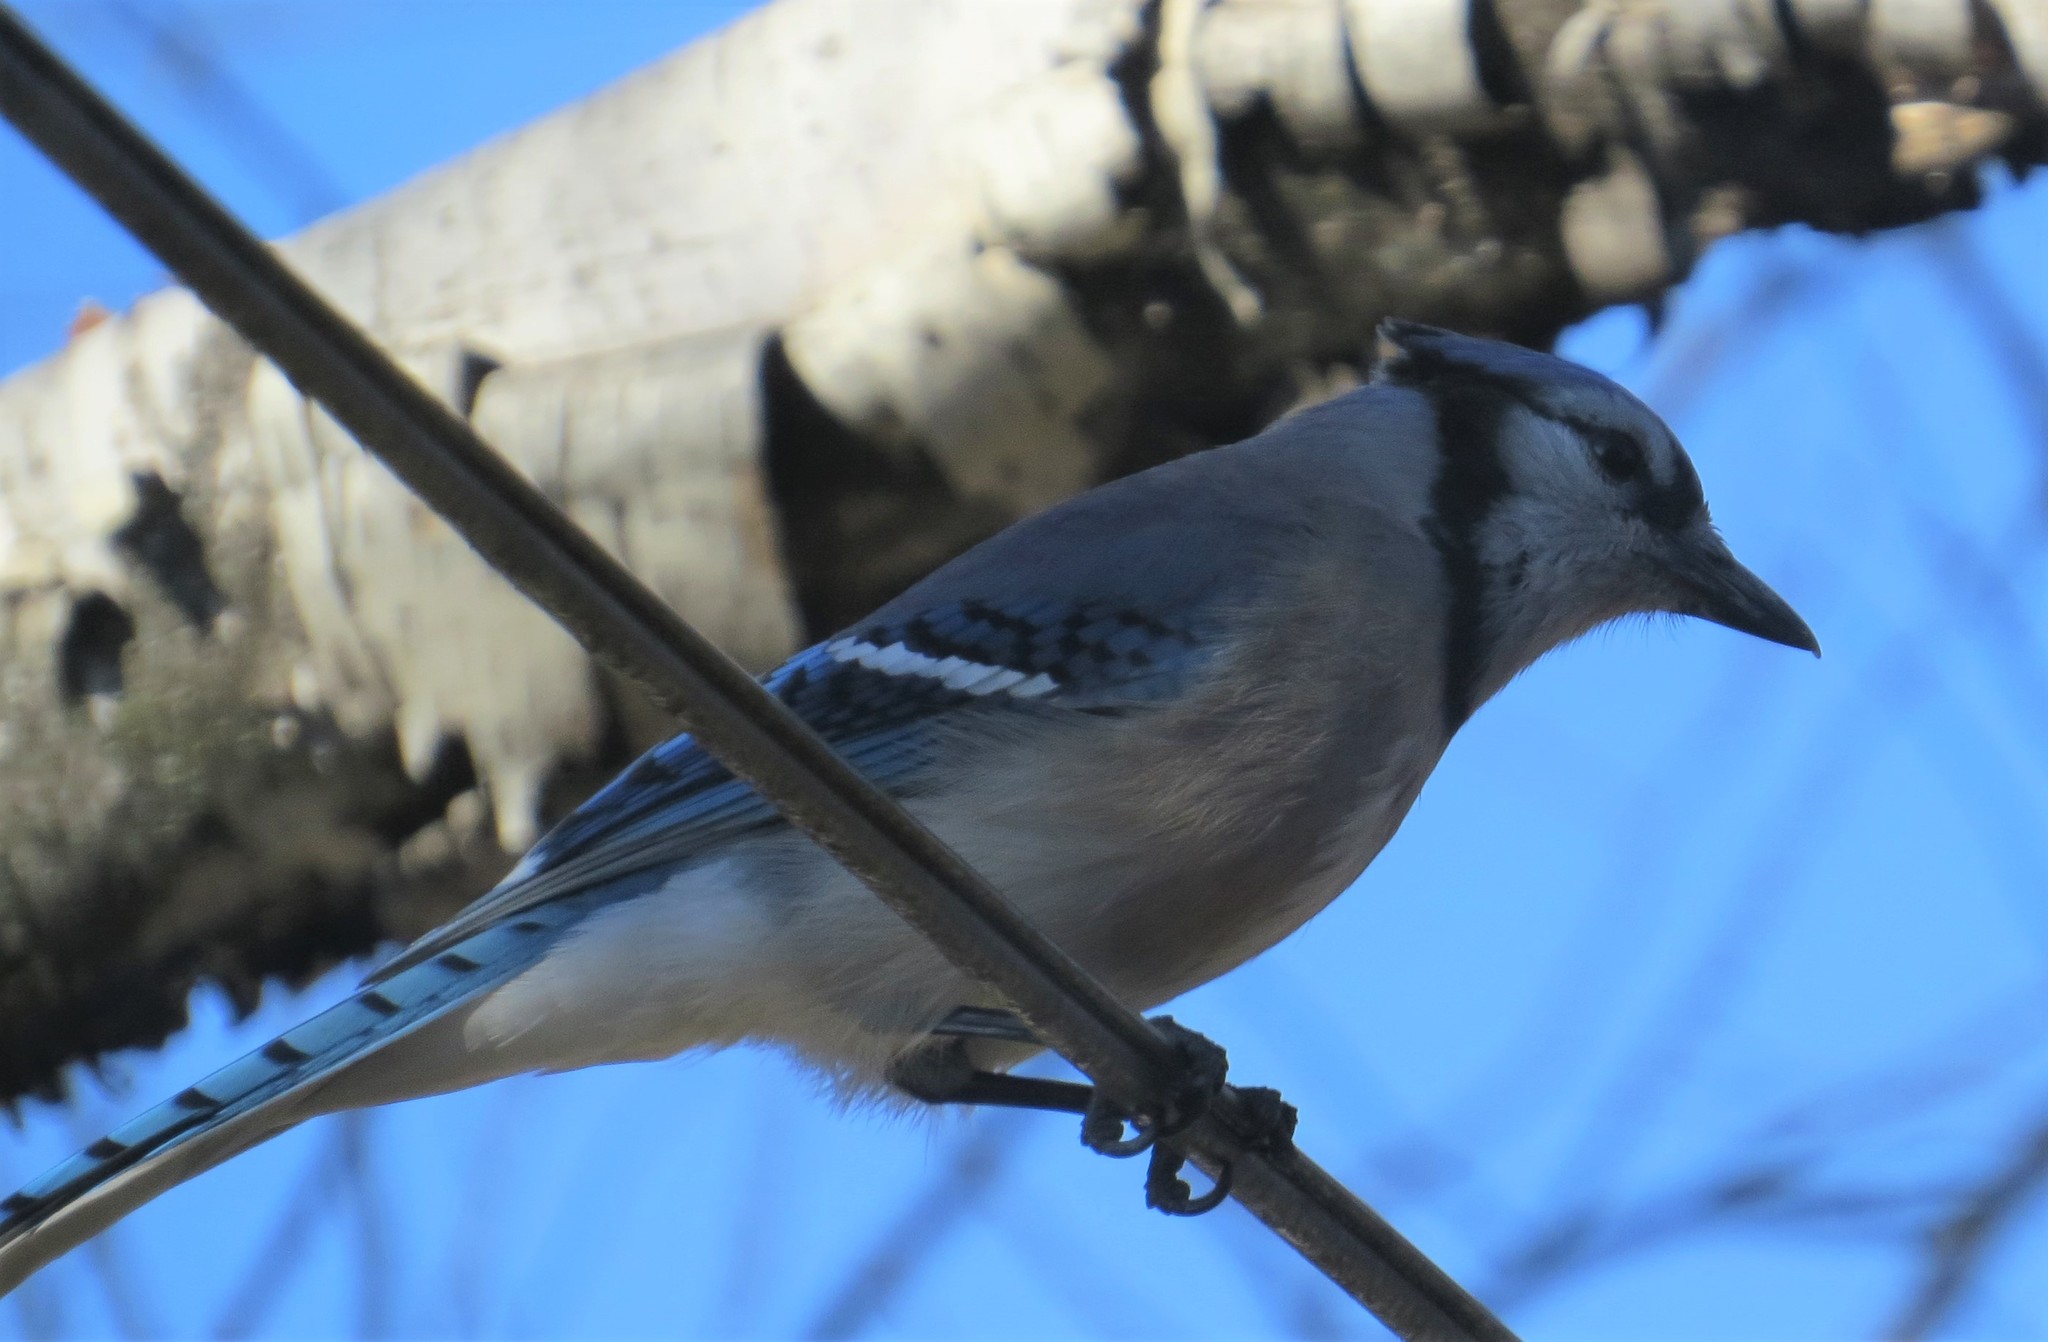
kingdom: Animalia
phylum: Chordata
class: Aves
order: Passeriformes
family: Corvidae
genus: Cyanocitta
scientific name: Cyanocitta cristata
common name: Blue jay
